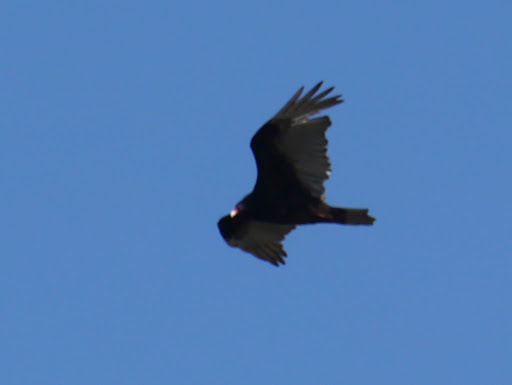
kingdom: Animalia
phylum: Chordata
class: Aves
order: Accipitriformes
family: Cathartidae
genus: Cathartes
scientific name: Cathartes aura
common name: Turkey vulture
